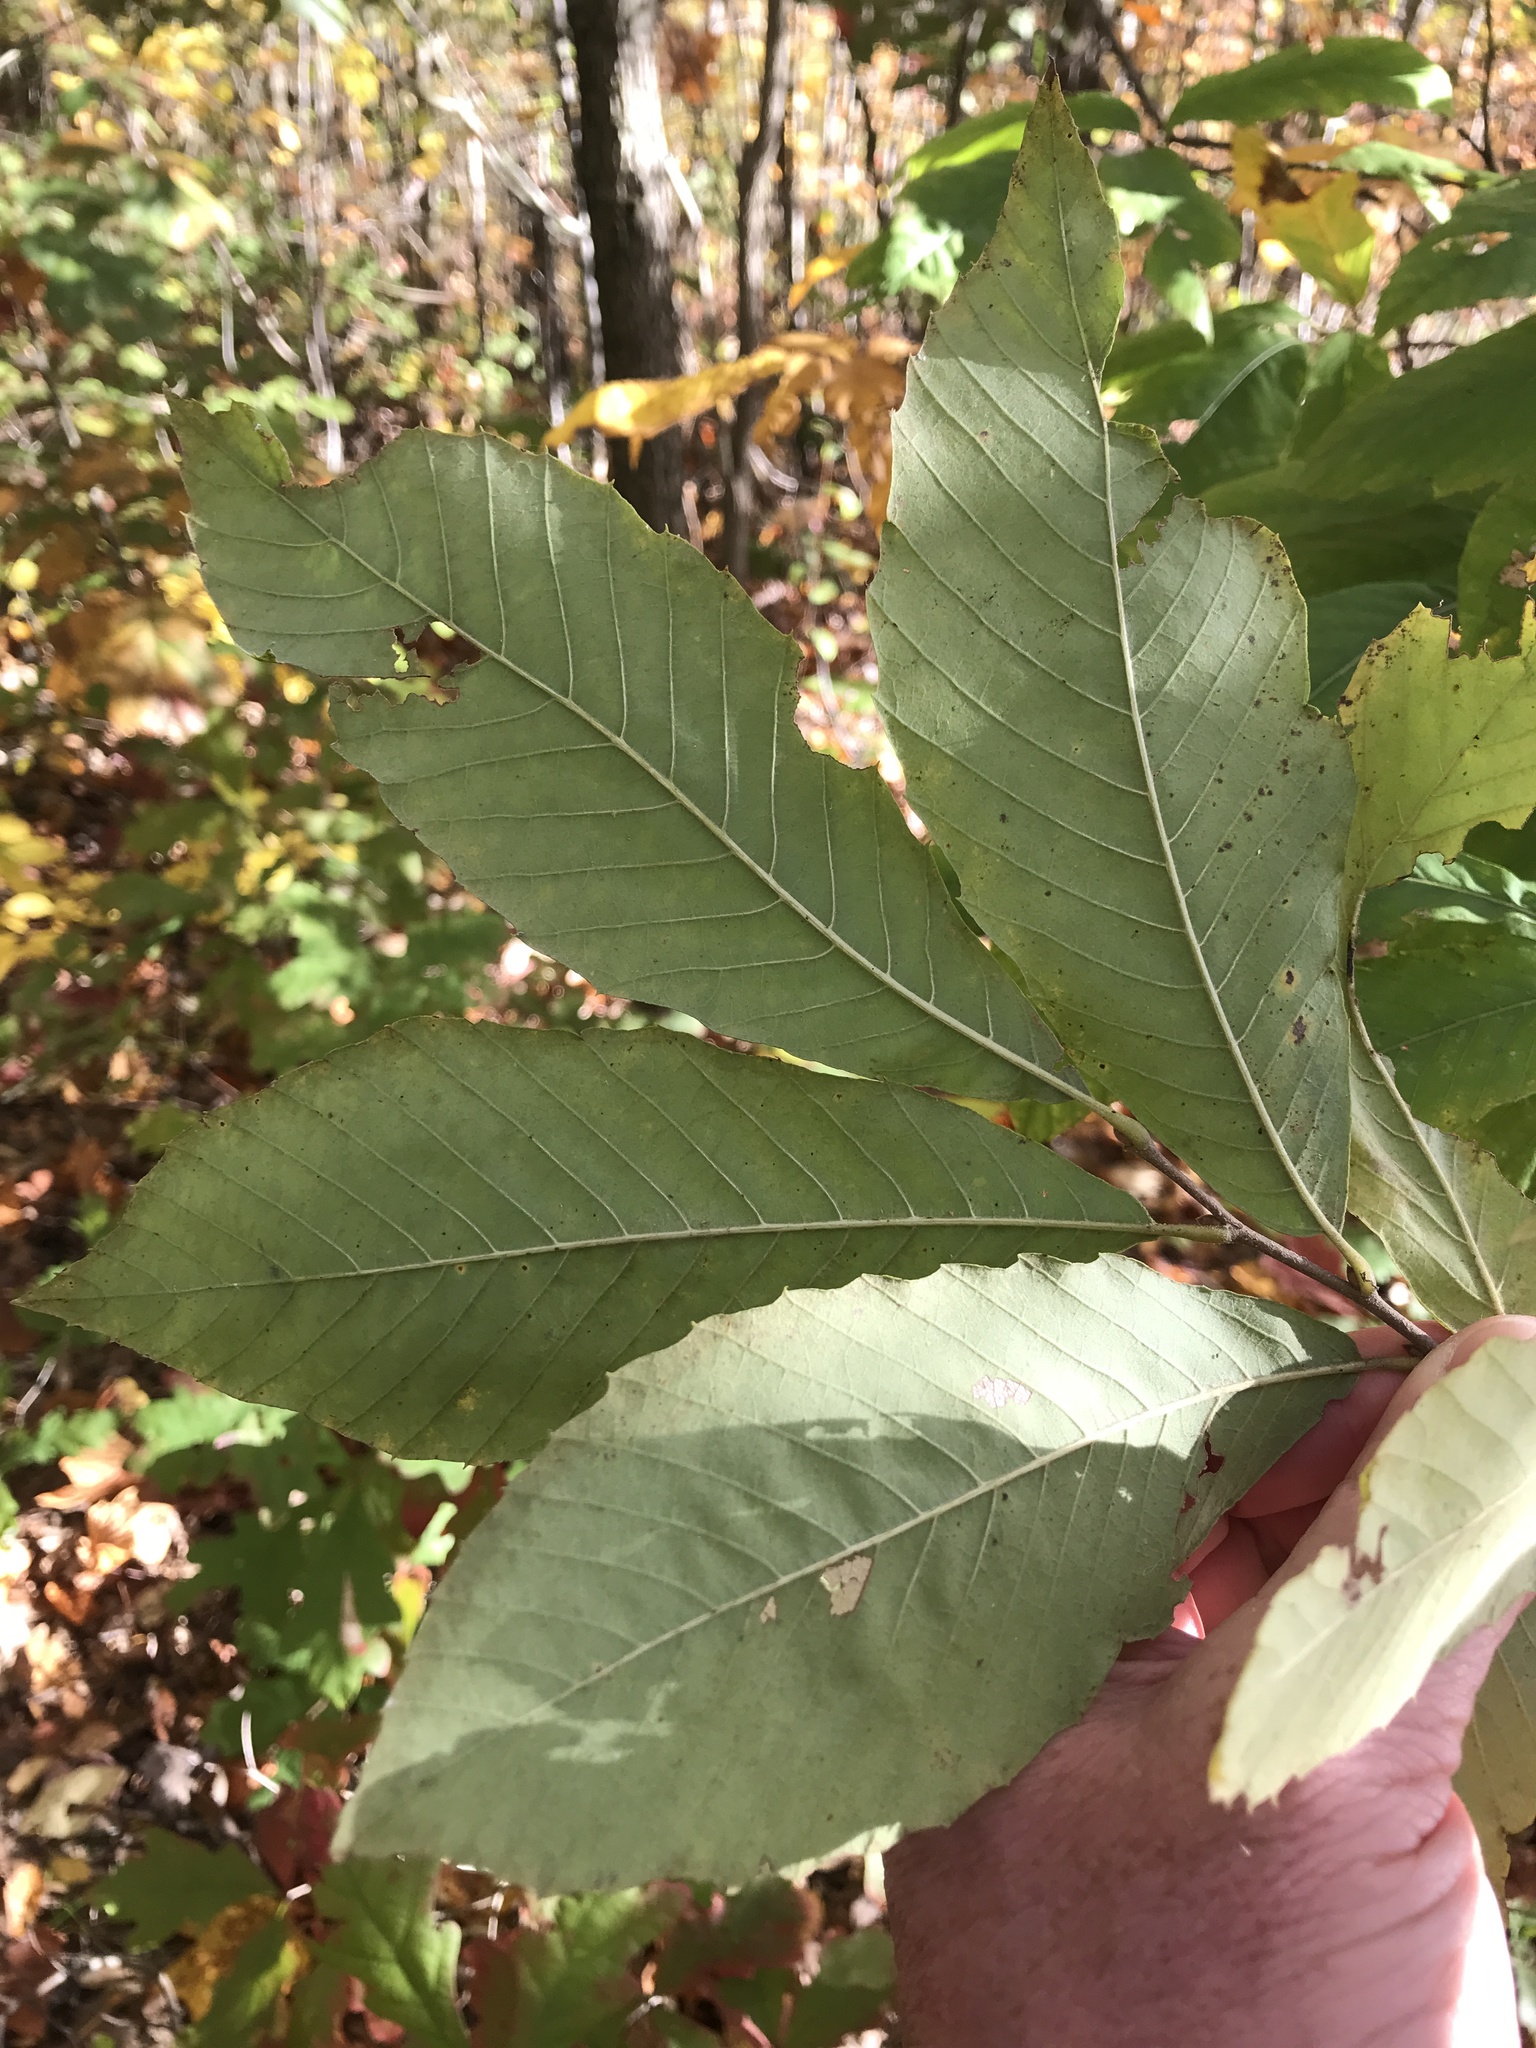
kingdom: Plantae
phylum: Tracheophyta
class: Magnoliopsida
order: Fagales
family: Fagaceae
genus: Castanea
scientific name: Castanea pumila
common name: Chinkapin
